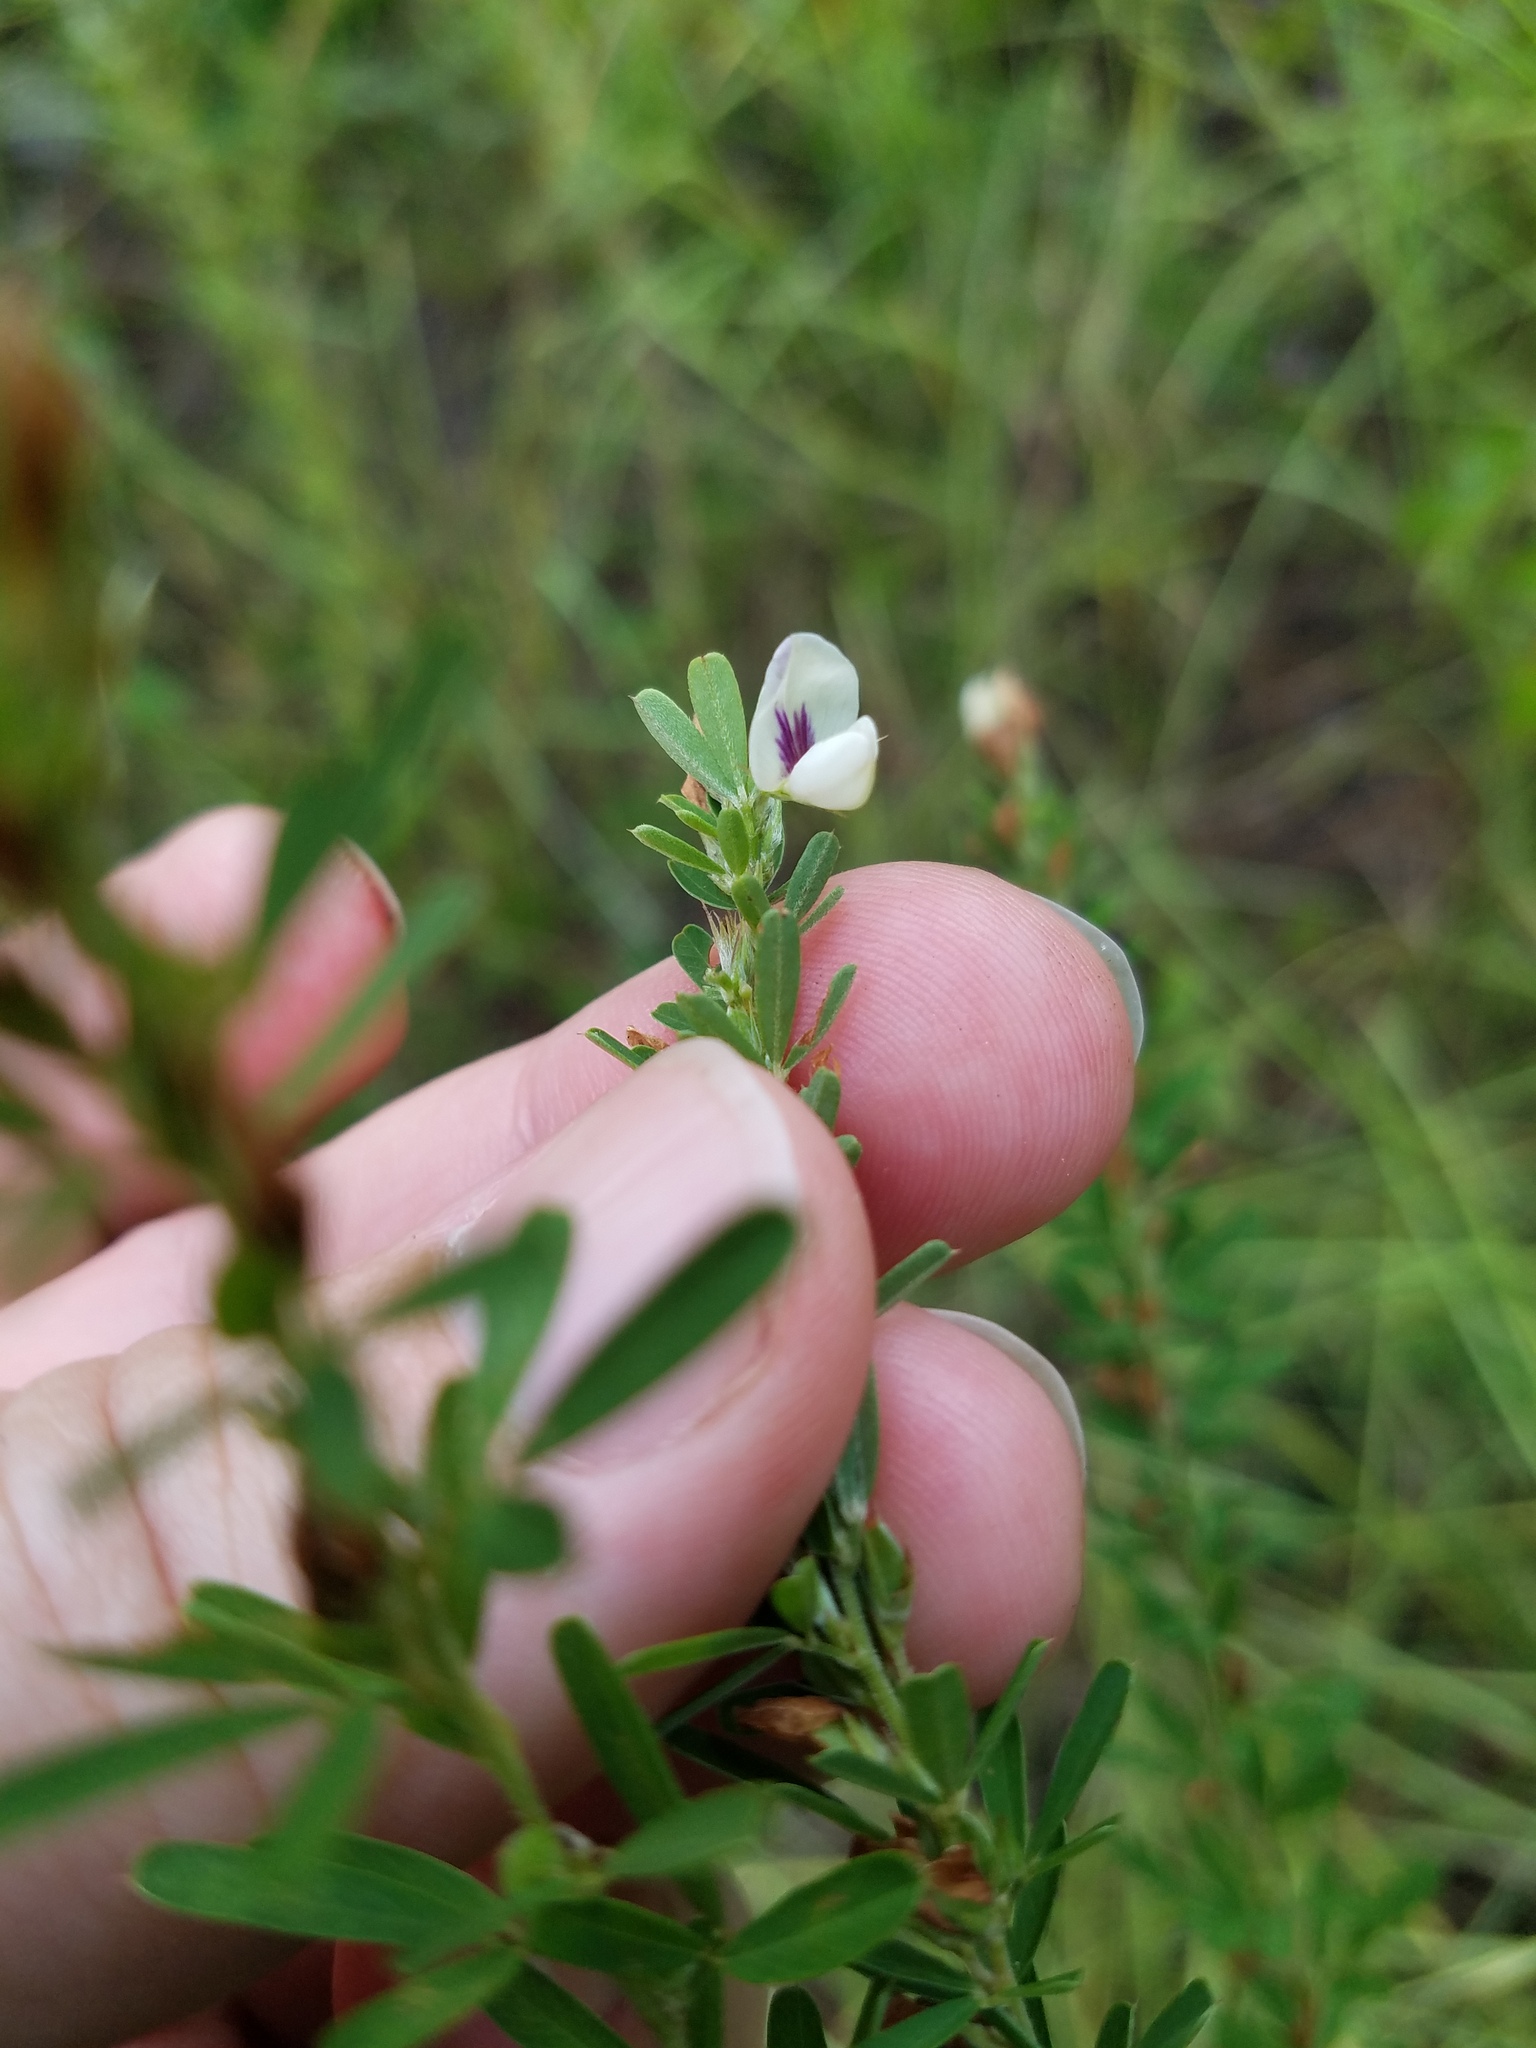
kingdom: Plantae
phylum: Tracheophyta
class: Magnoliopsida
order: Fabales
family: Fabaceae
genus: Lespedeza
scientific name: Lespedeza cuneata
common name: Chinese bush-clover
